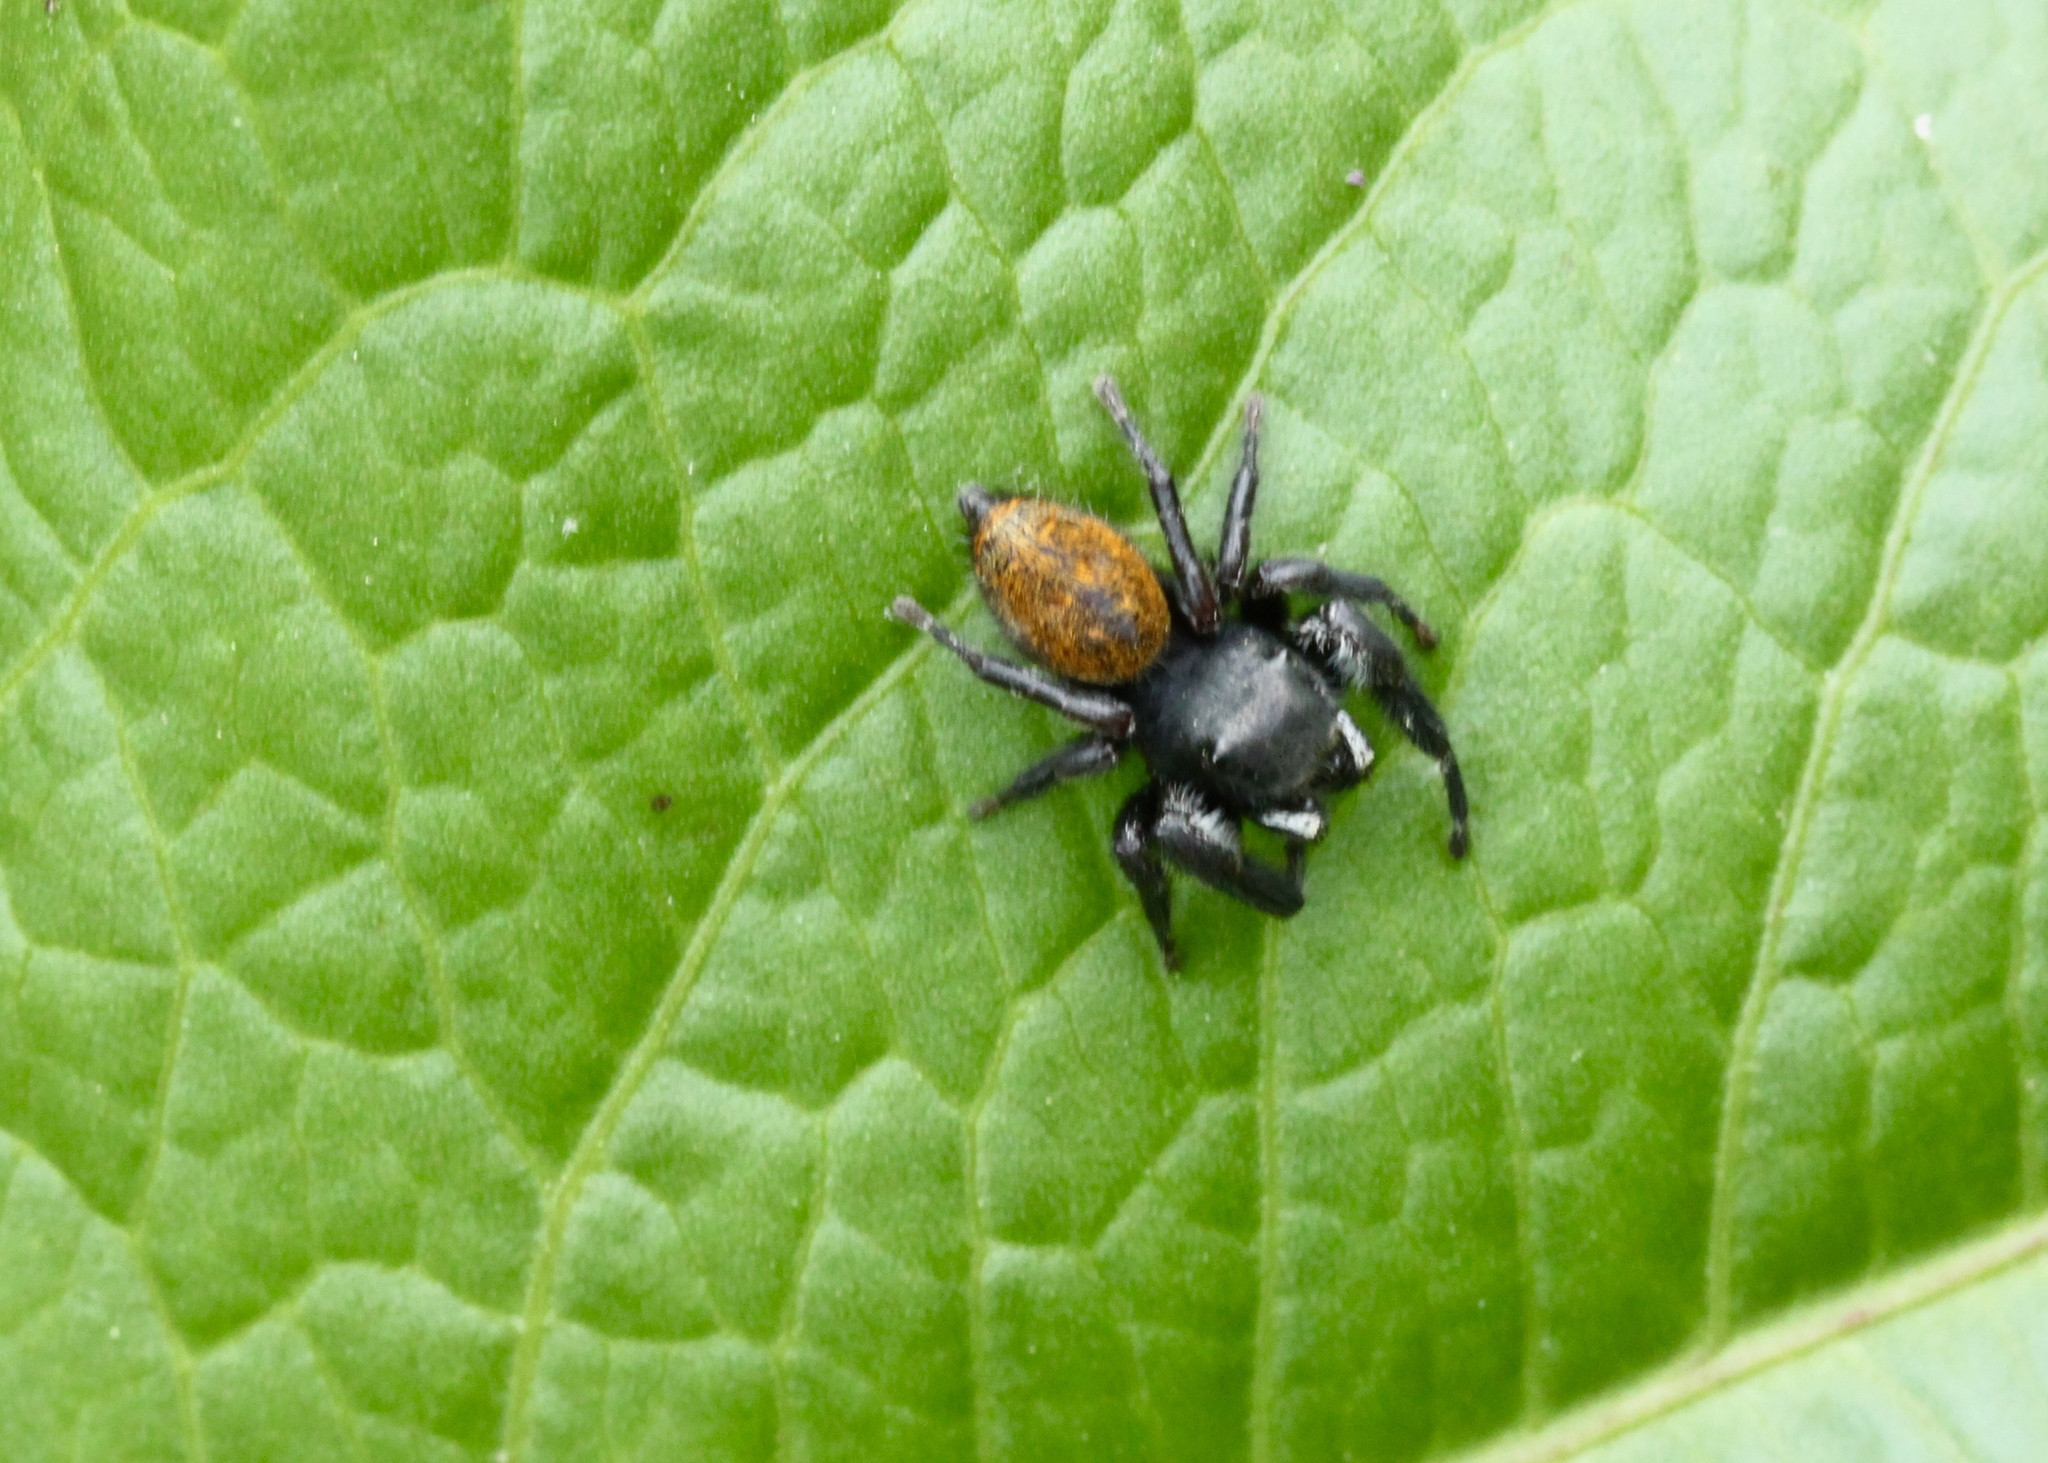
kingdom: Animalia
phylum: Arthropoda
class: Arachnida
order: Araneae
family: Salticidae
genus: Phidippus
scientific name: Phidippus princeps
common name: Grayish jumping spider
